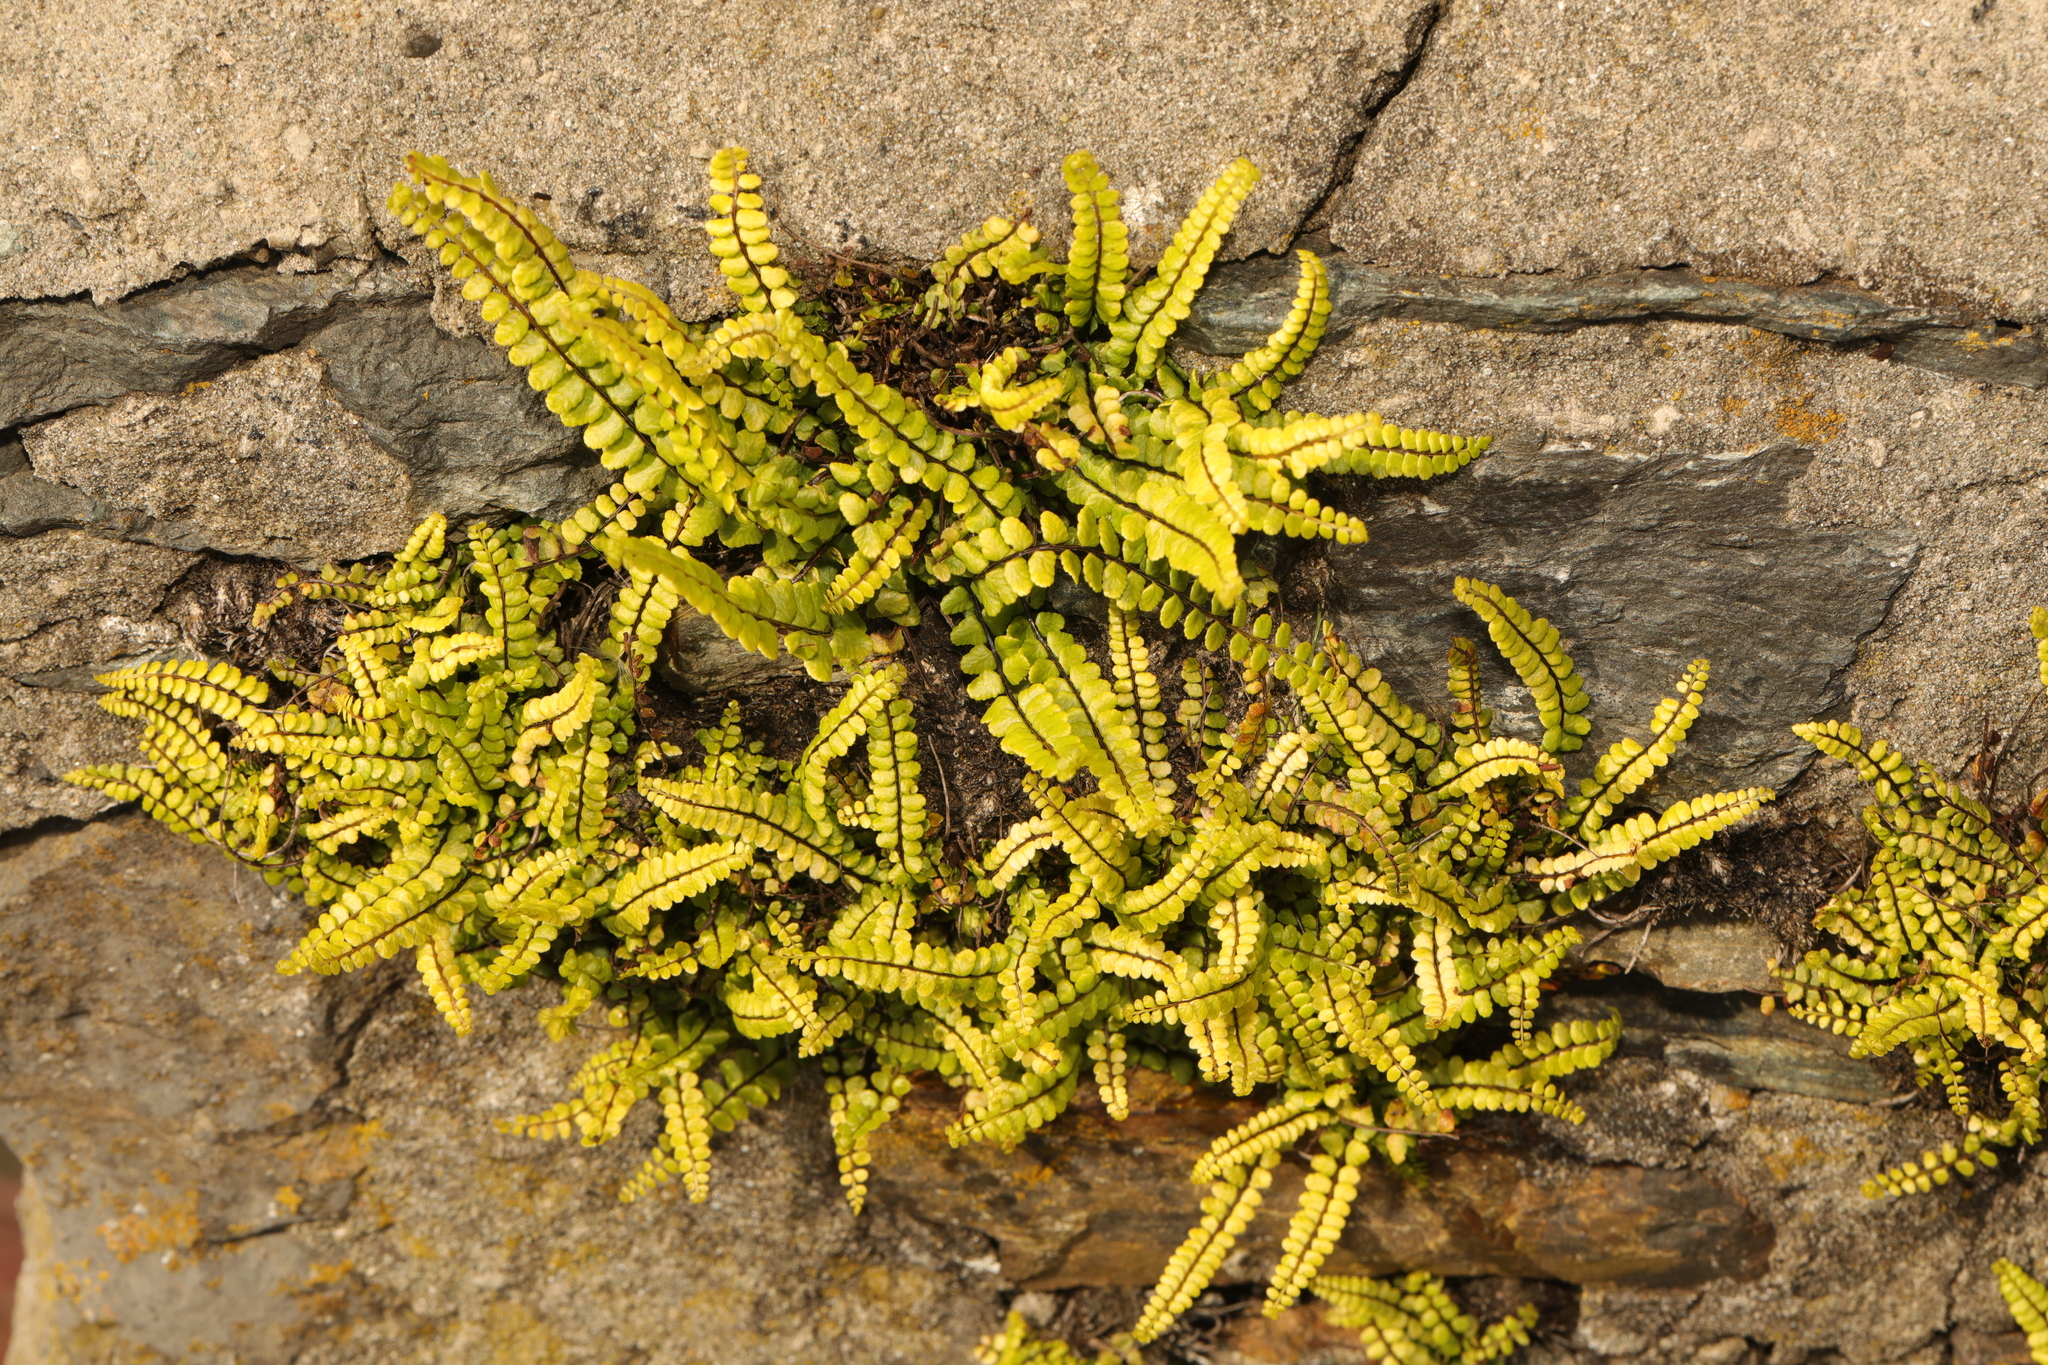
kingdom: Plantae
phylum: Tracheophyta
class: Polypodiopsida
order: Polypodiales
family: Aspleniaceae
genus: Asplenium
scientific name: Asplenium trichomanes
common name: Maidenhair spleenwort
